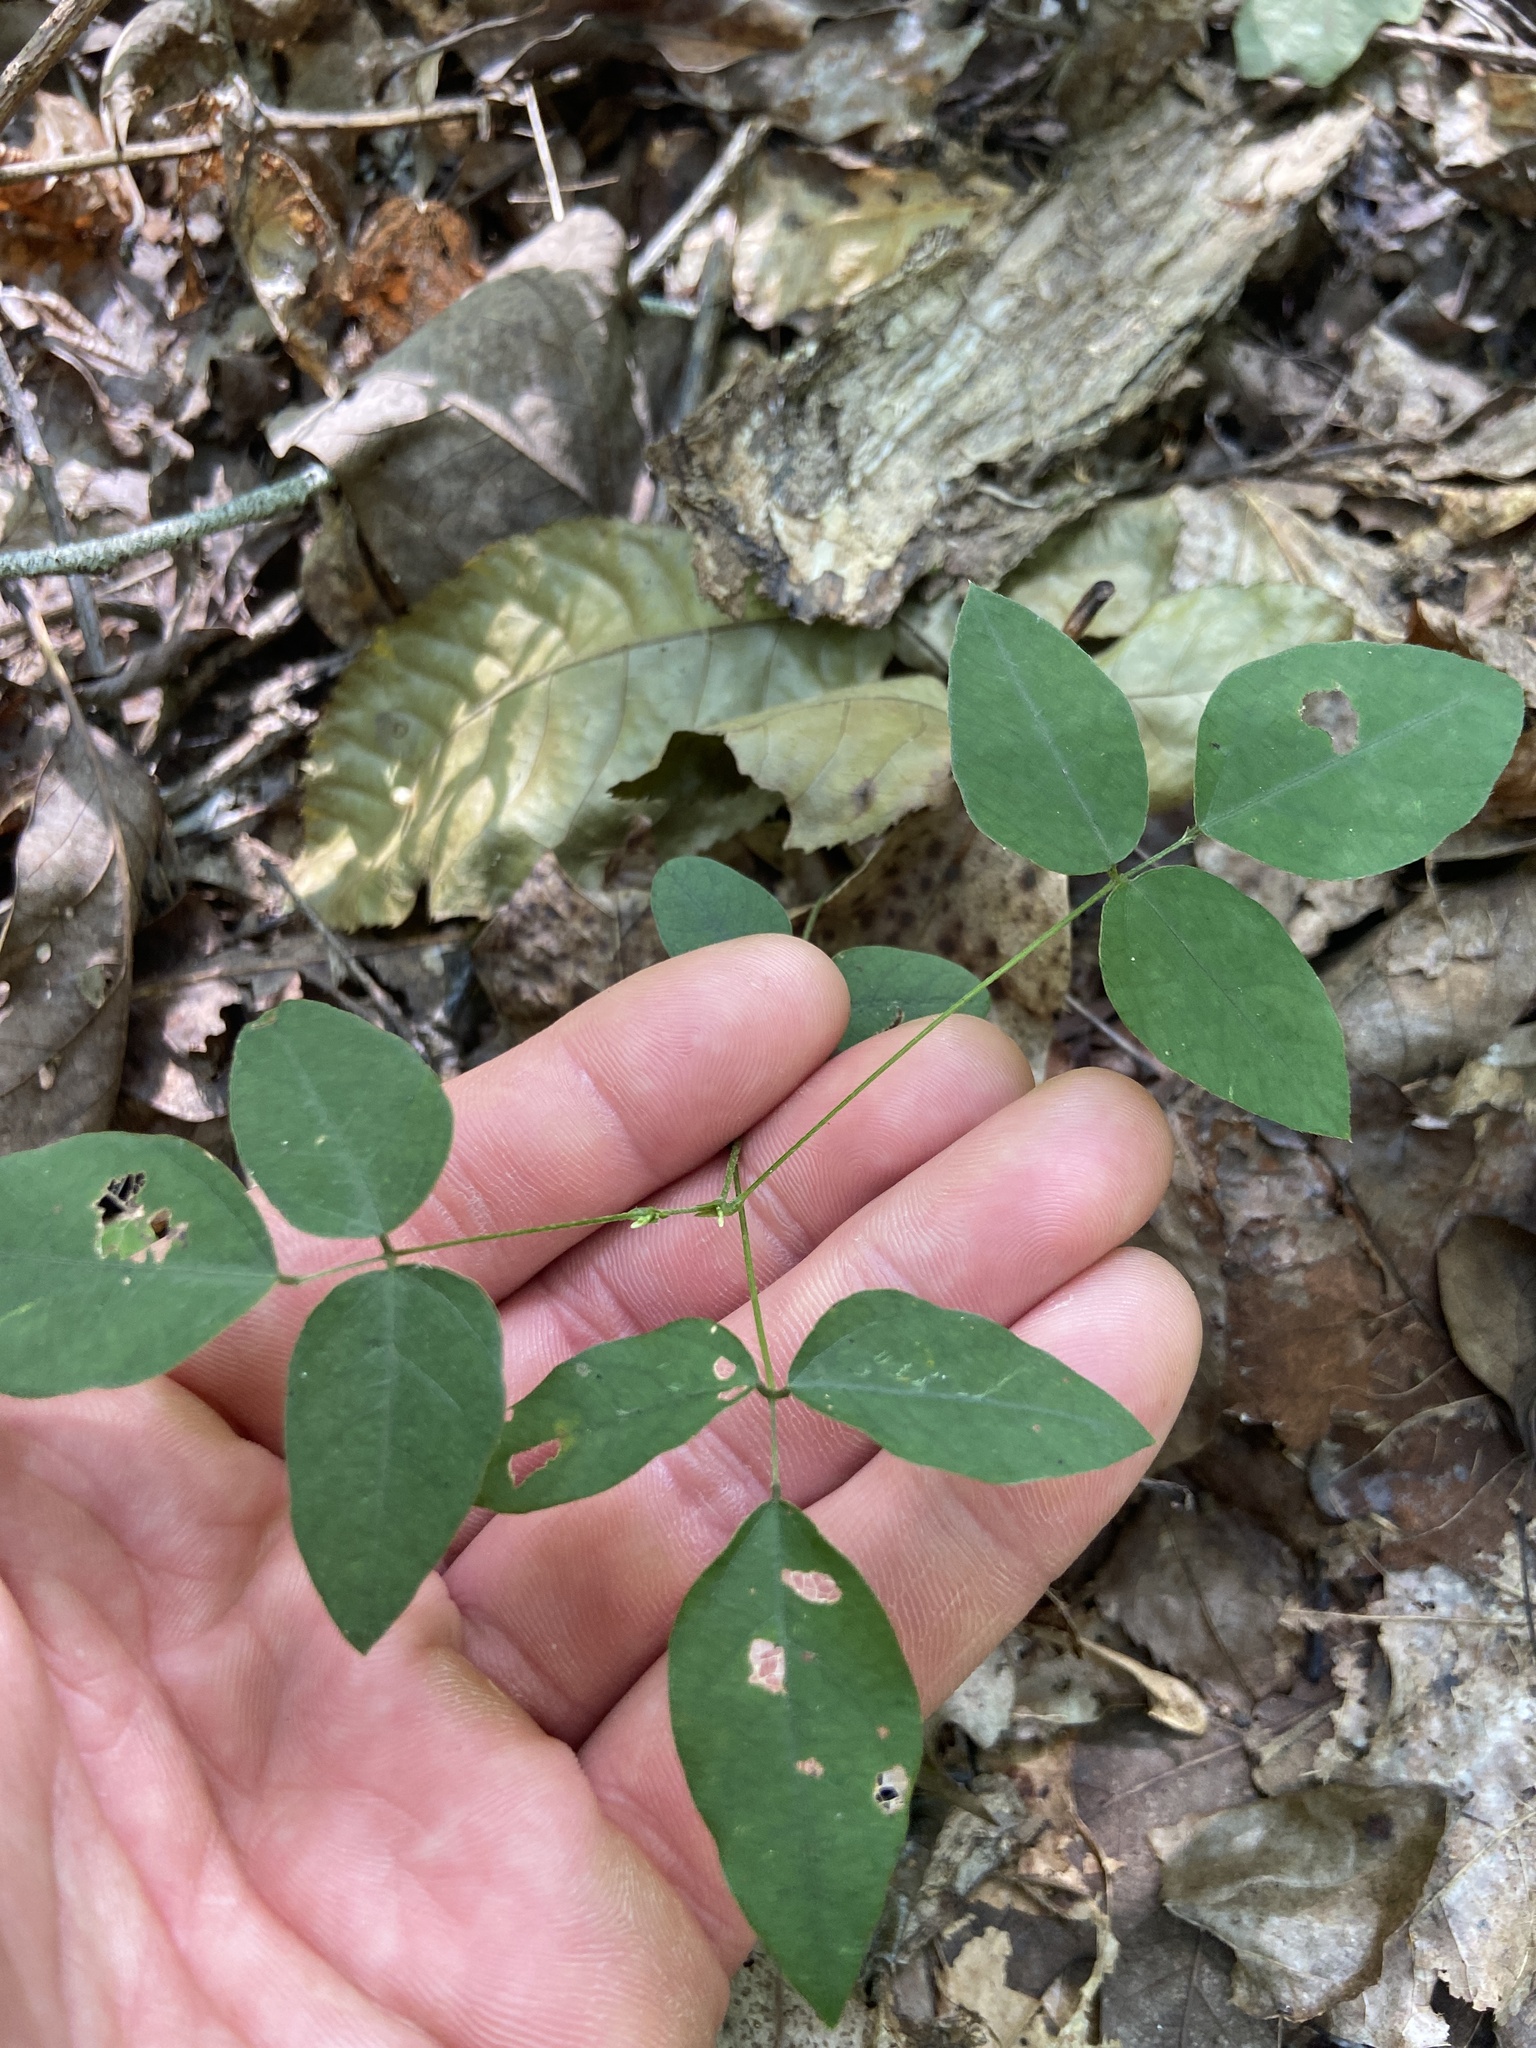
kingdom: Plantae
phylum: Tracheophyta
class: Magnoliopsida
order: Fabales
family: Fabaceae
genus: Hylodesmum
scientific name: Hylodesmum nudiflorum
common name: Bare-stemmed tick-trefoil
